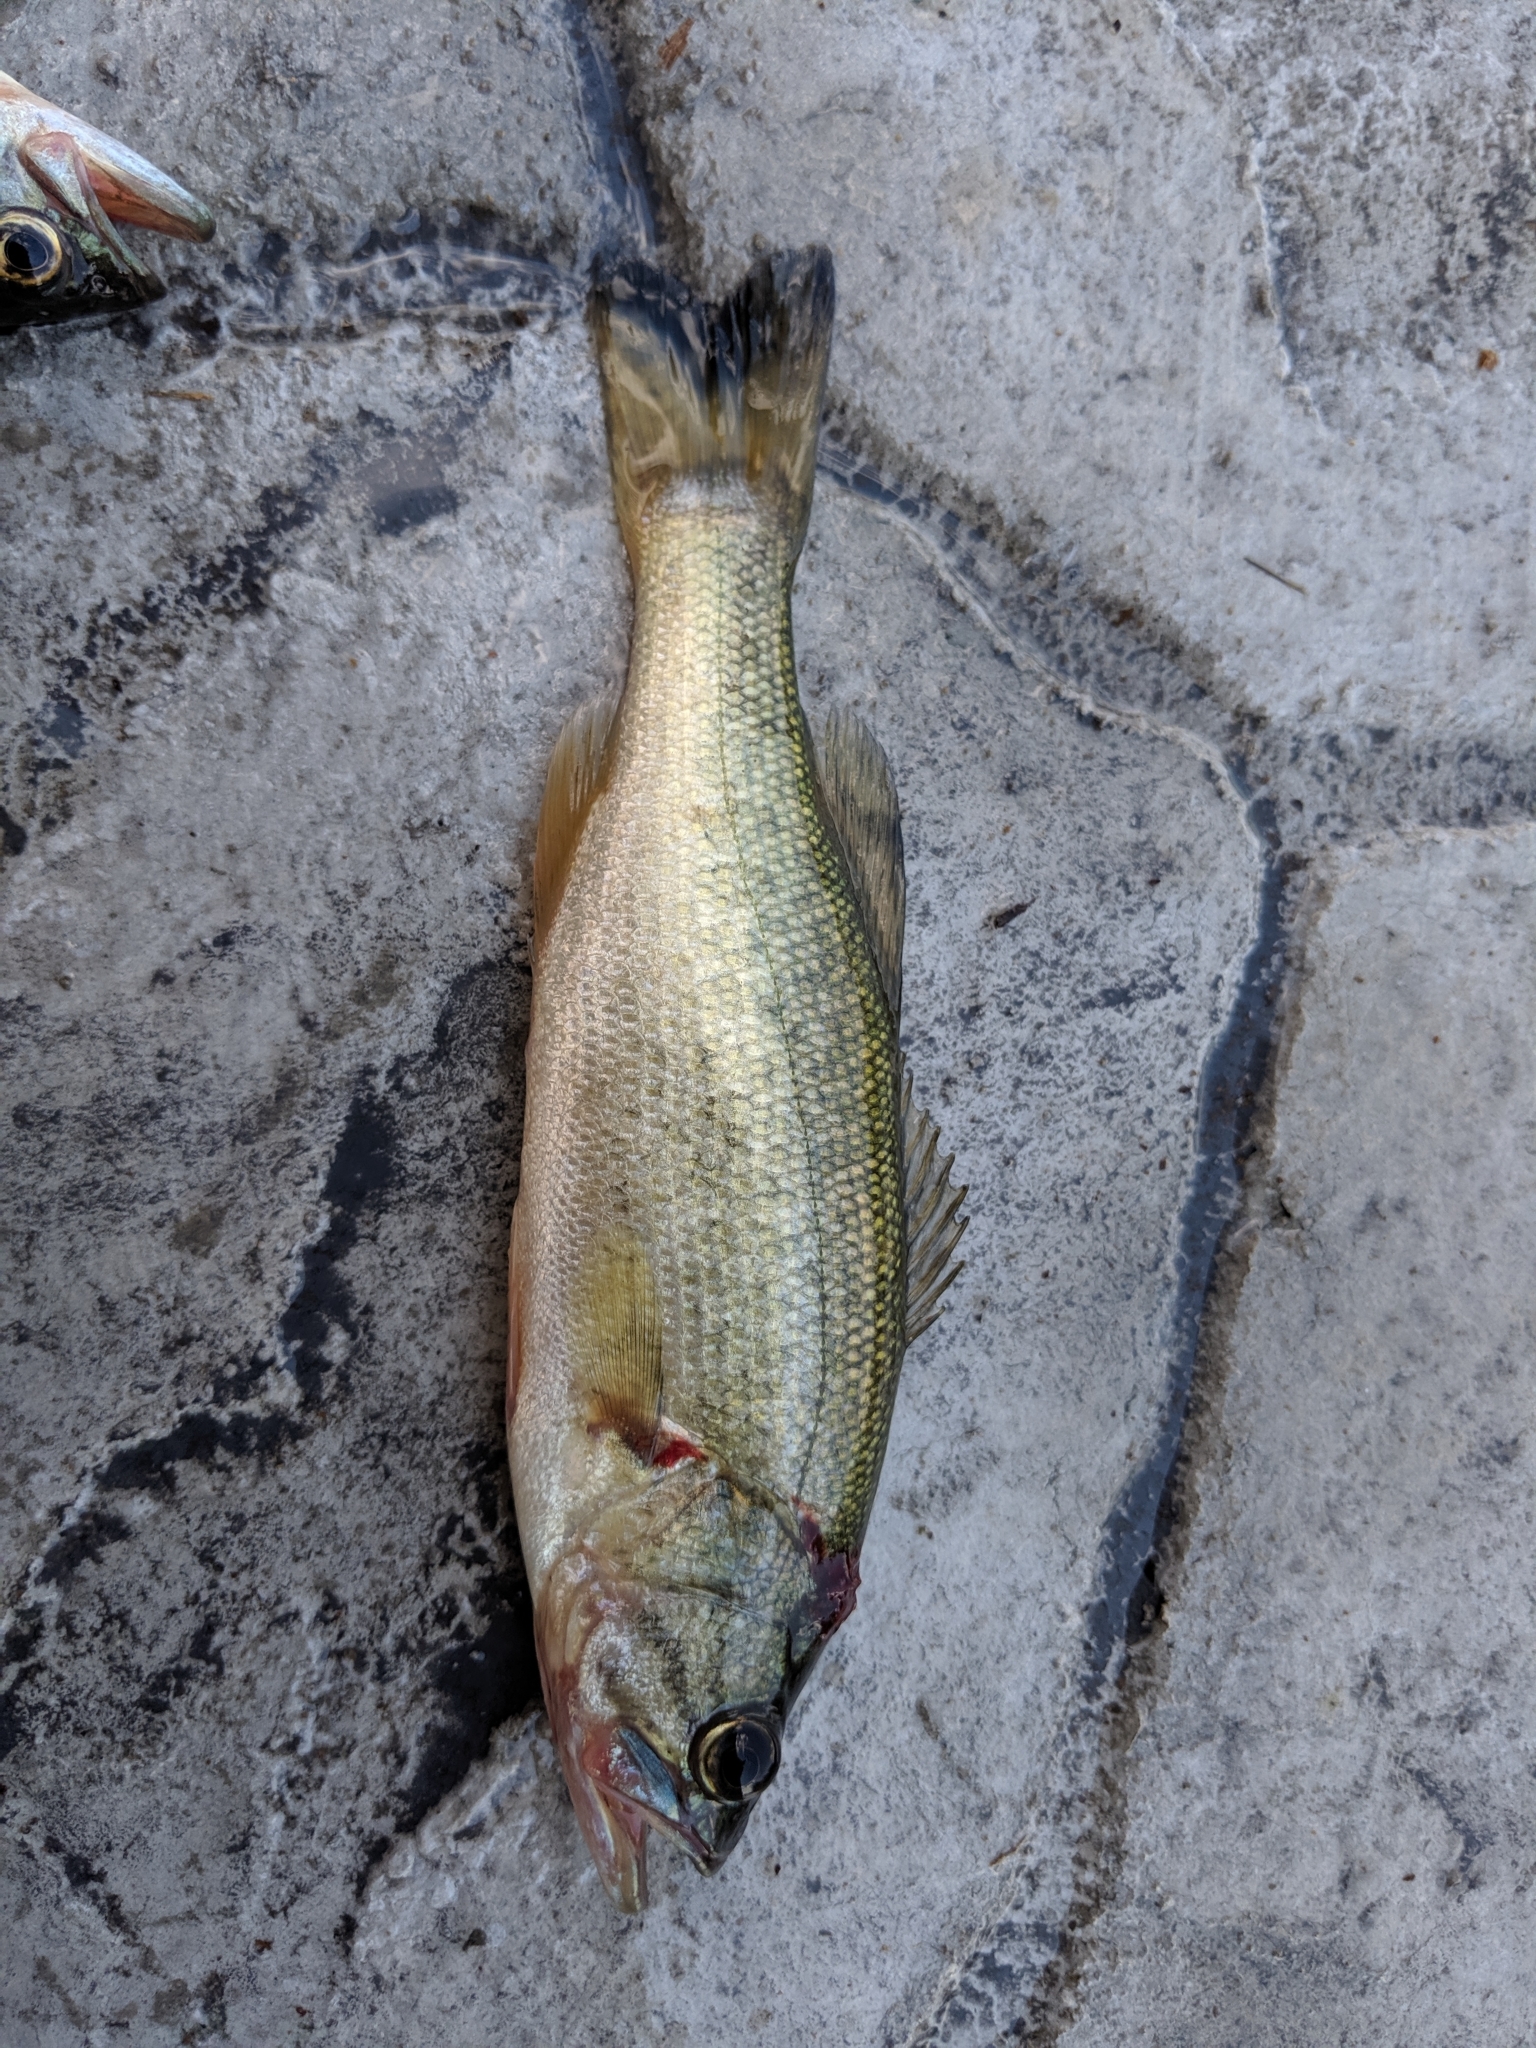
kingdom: Animalia
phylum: Chordata
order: Perciformes
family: Centrarchidae
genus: Micropterus
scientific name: Micropterus
